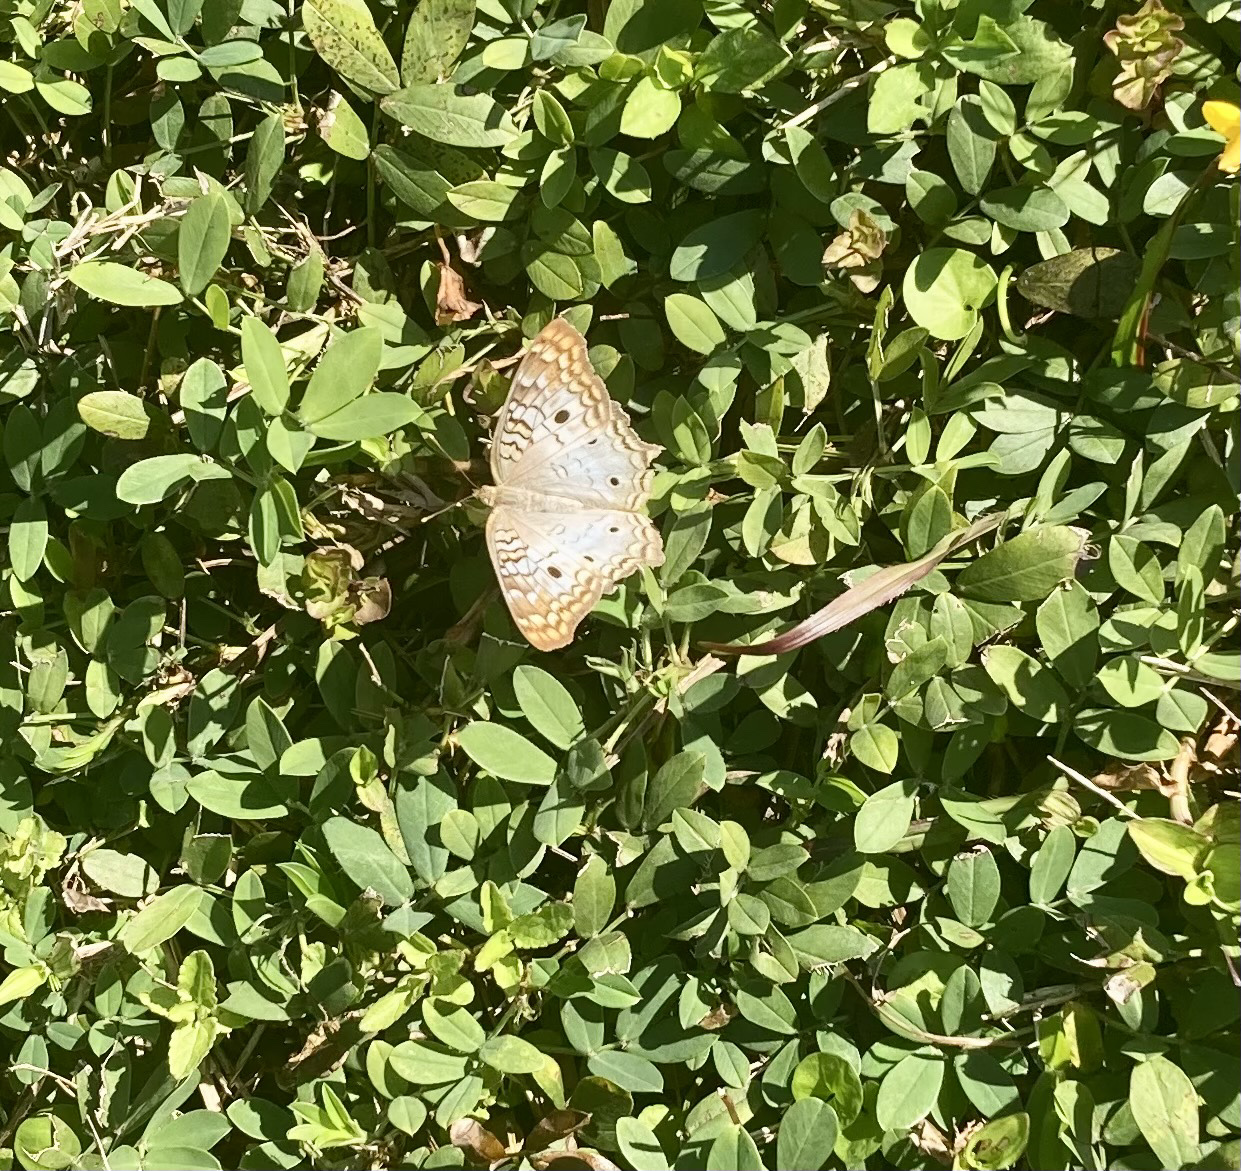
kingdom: Animalia
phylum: Arthropoda
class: Insecta
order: Lepidoptera
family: Nymphalidae
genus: Anartia
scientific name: Anartia jatrophae
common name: White peacock
